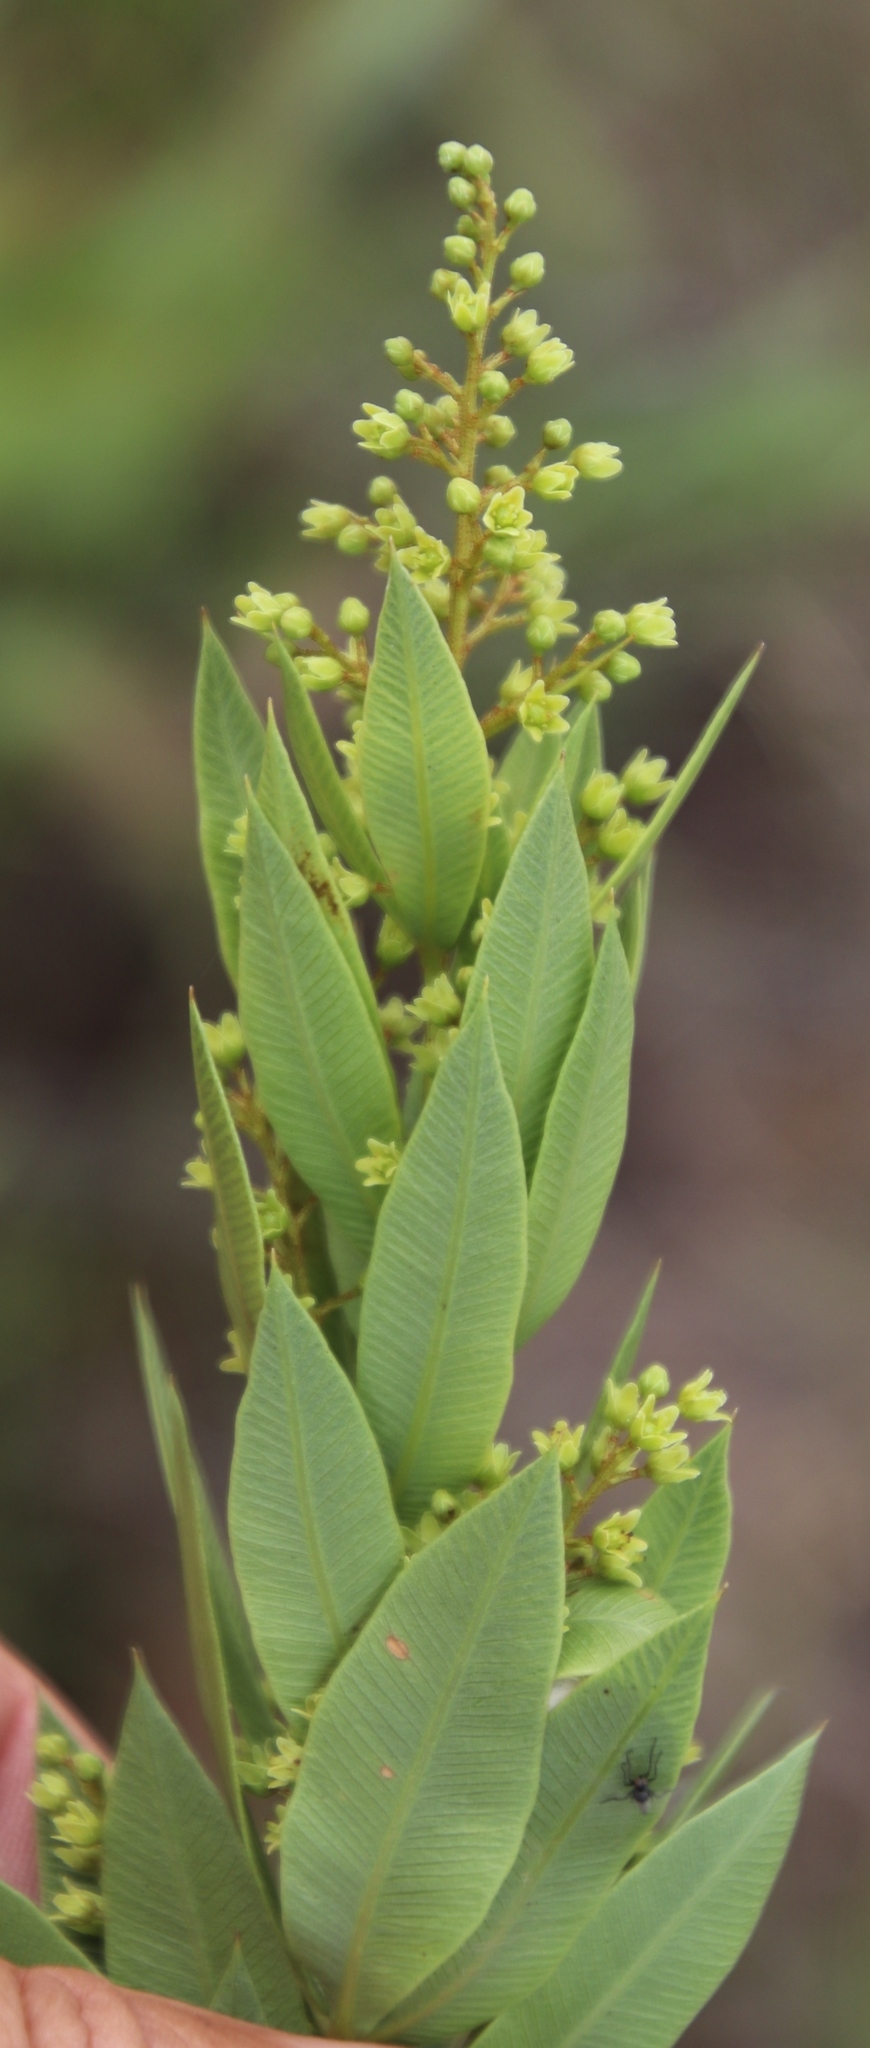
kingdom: Plantae
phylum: Tracheophyta
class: Magnoliopsida
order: Sapindales
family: Anacardiaceae
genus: Searsia
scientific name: Searsia pondoensis
